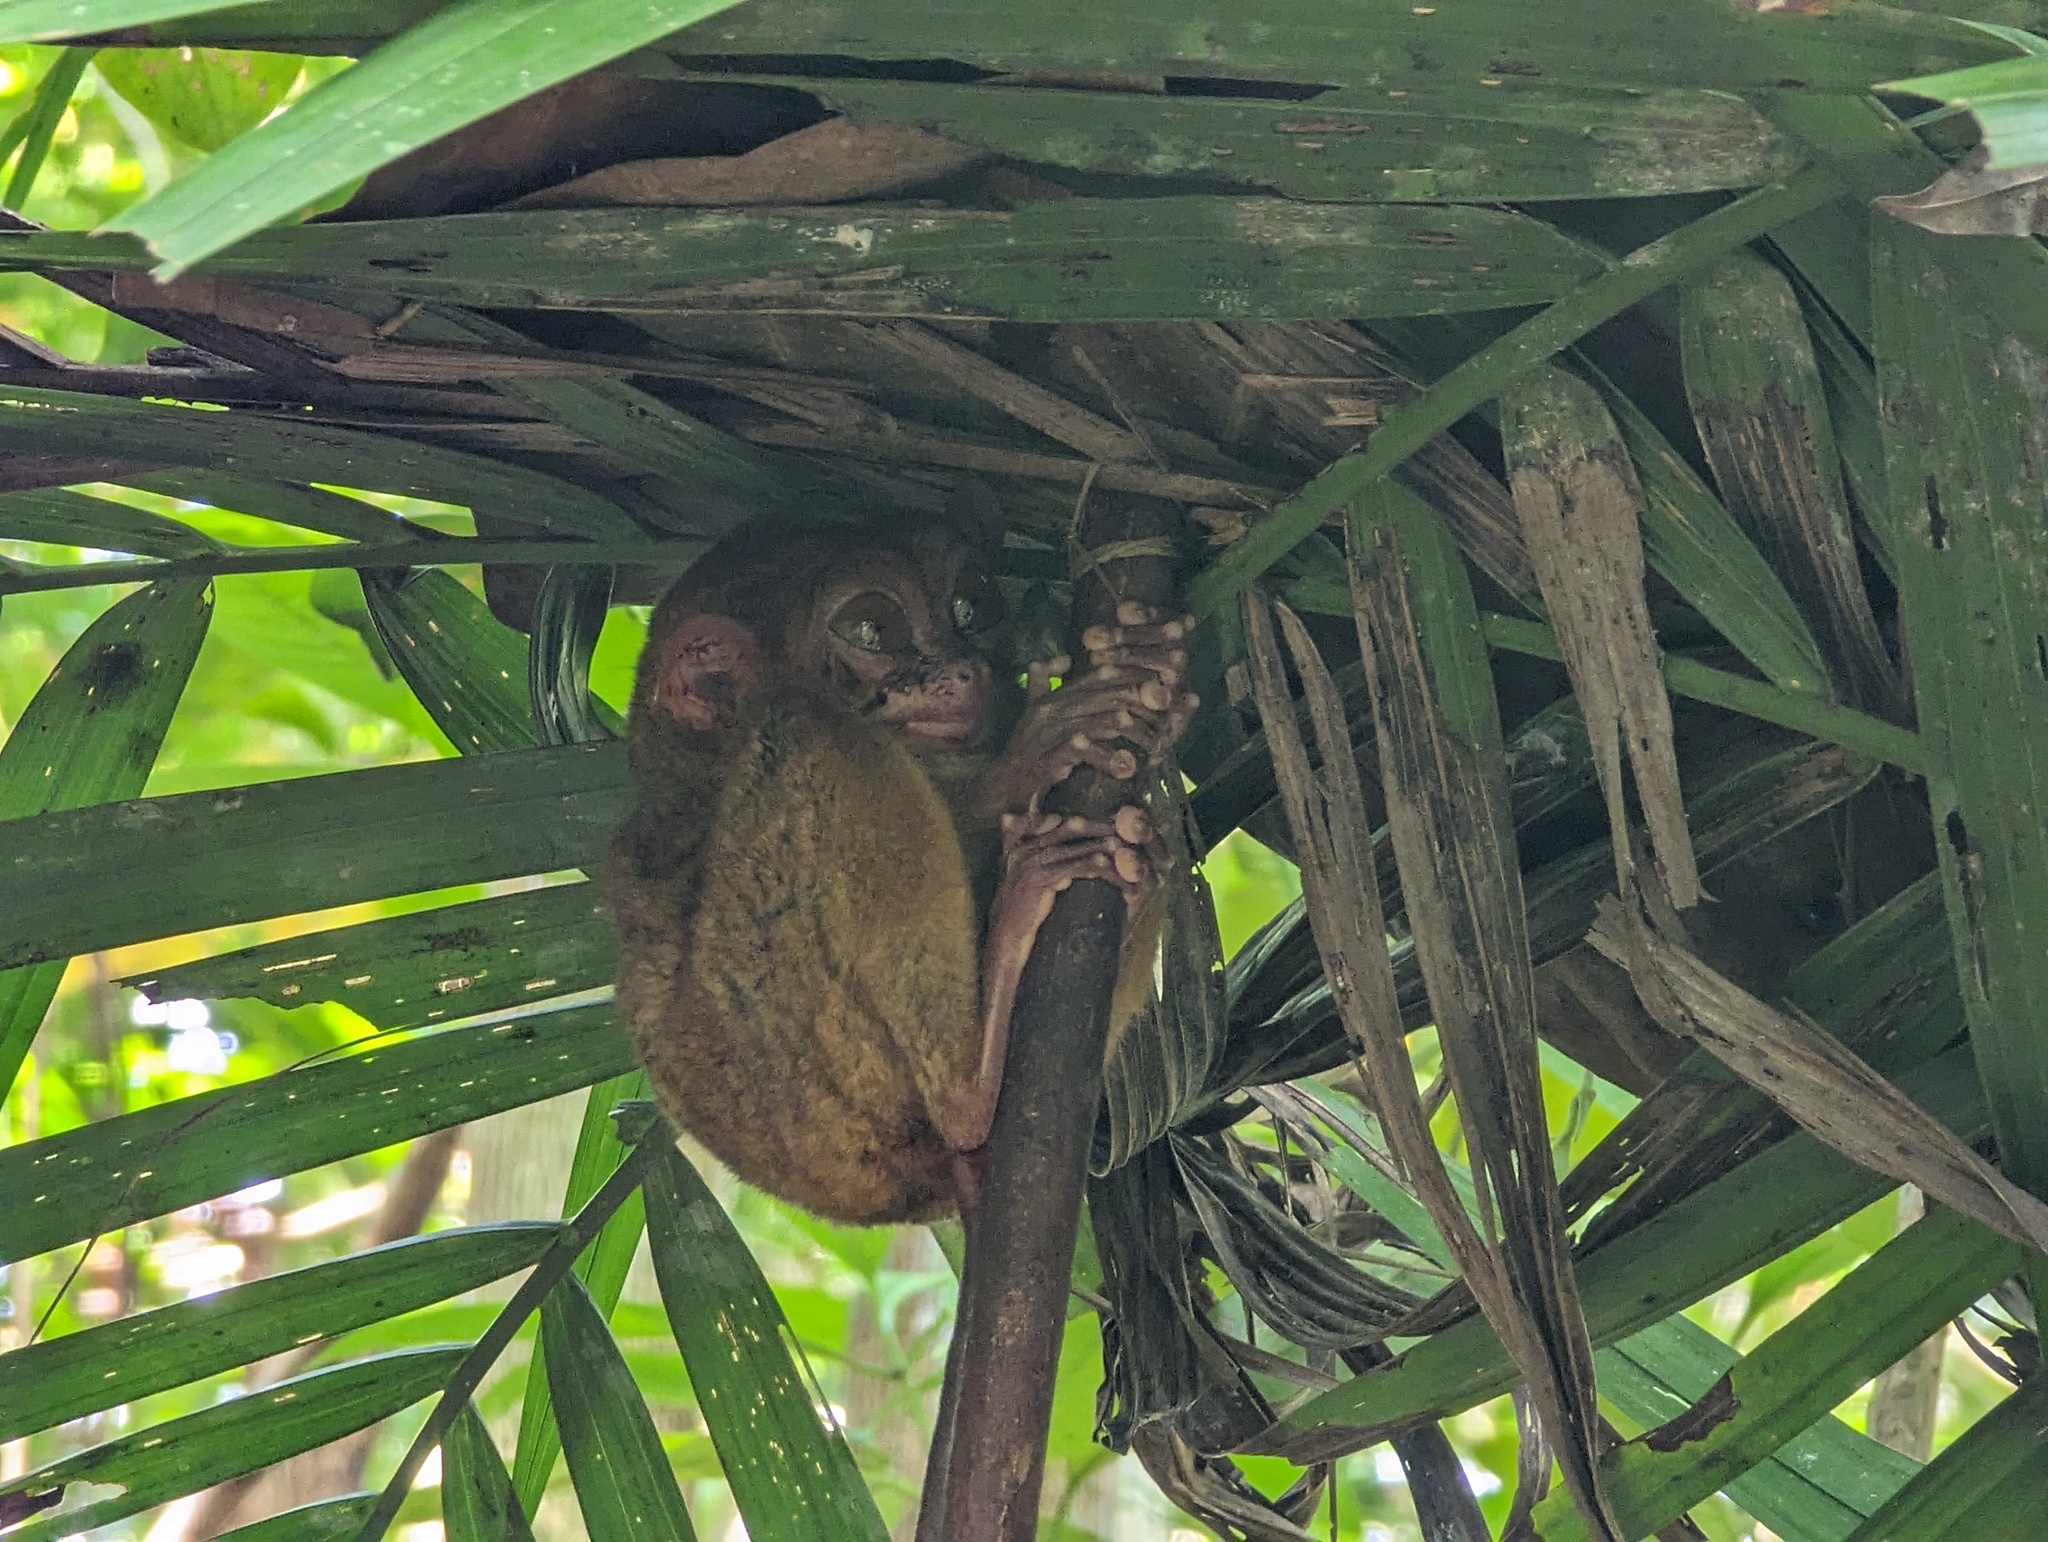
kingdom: Animalia
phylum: Chordata
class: Mammalia
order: Primates
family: Tarsiidae
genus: Carlito
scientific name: Carlito syrichta
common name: Philippine tarsier
